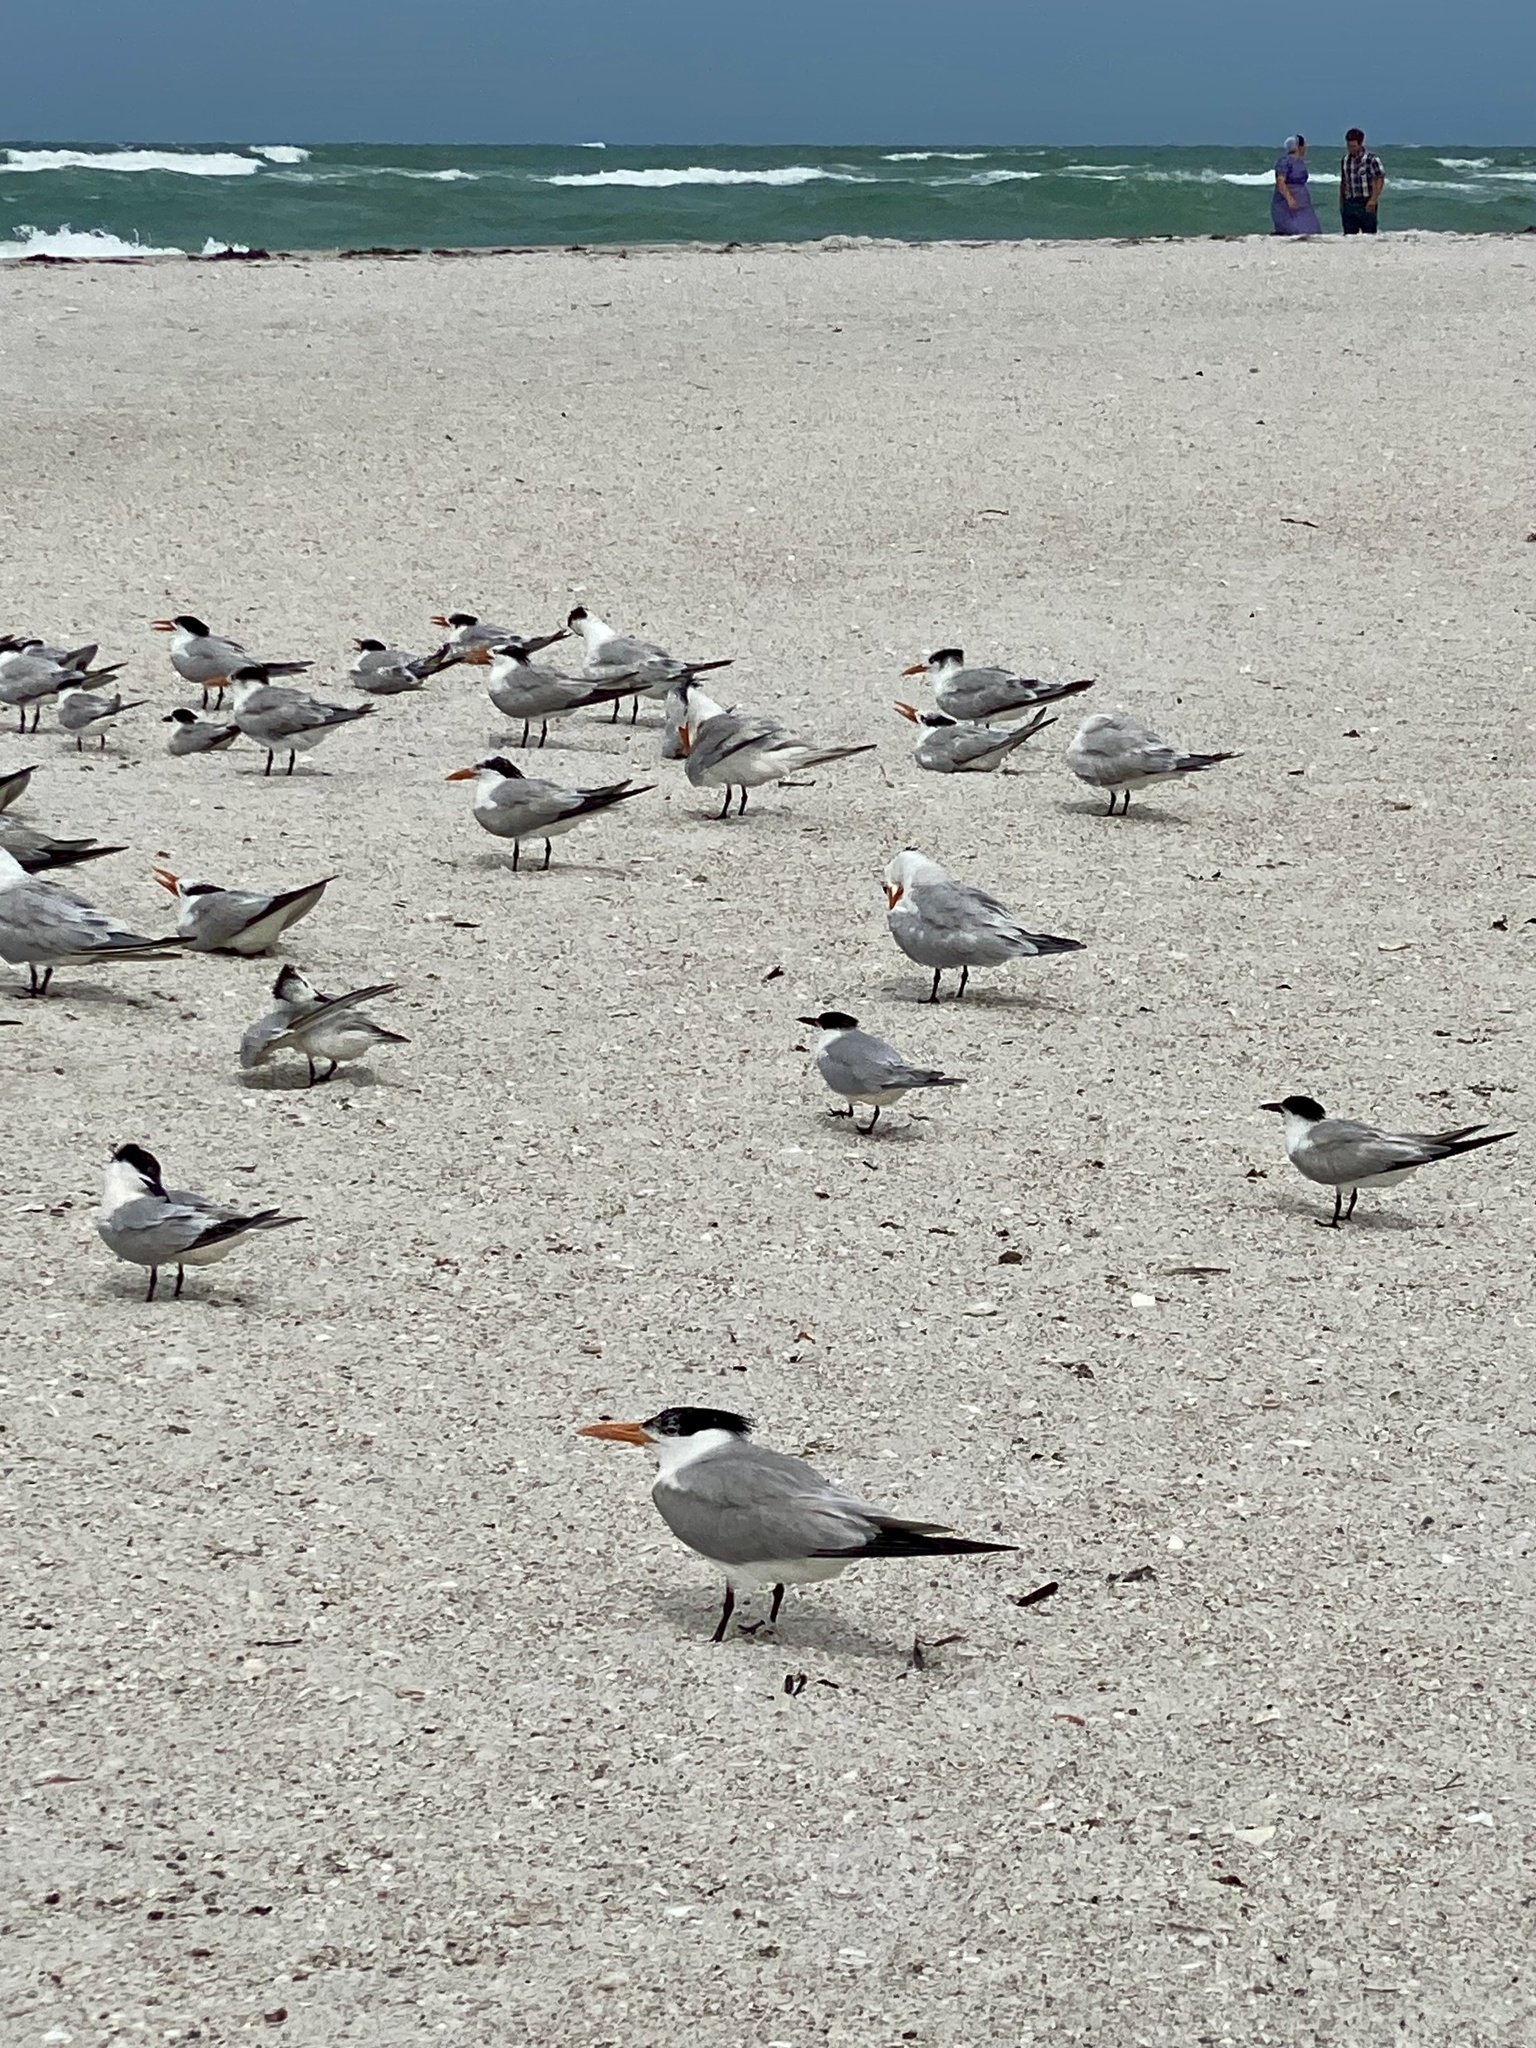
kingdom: Animalia
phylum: Chordata
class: Aves
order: Charadriiformes
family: Laridae
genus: Thalasseus
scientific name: Thalasseus maximus
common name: Royal tern
